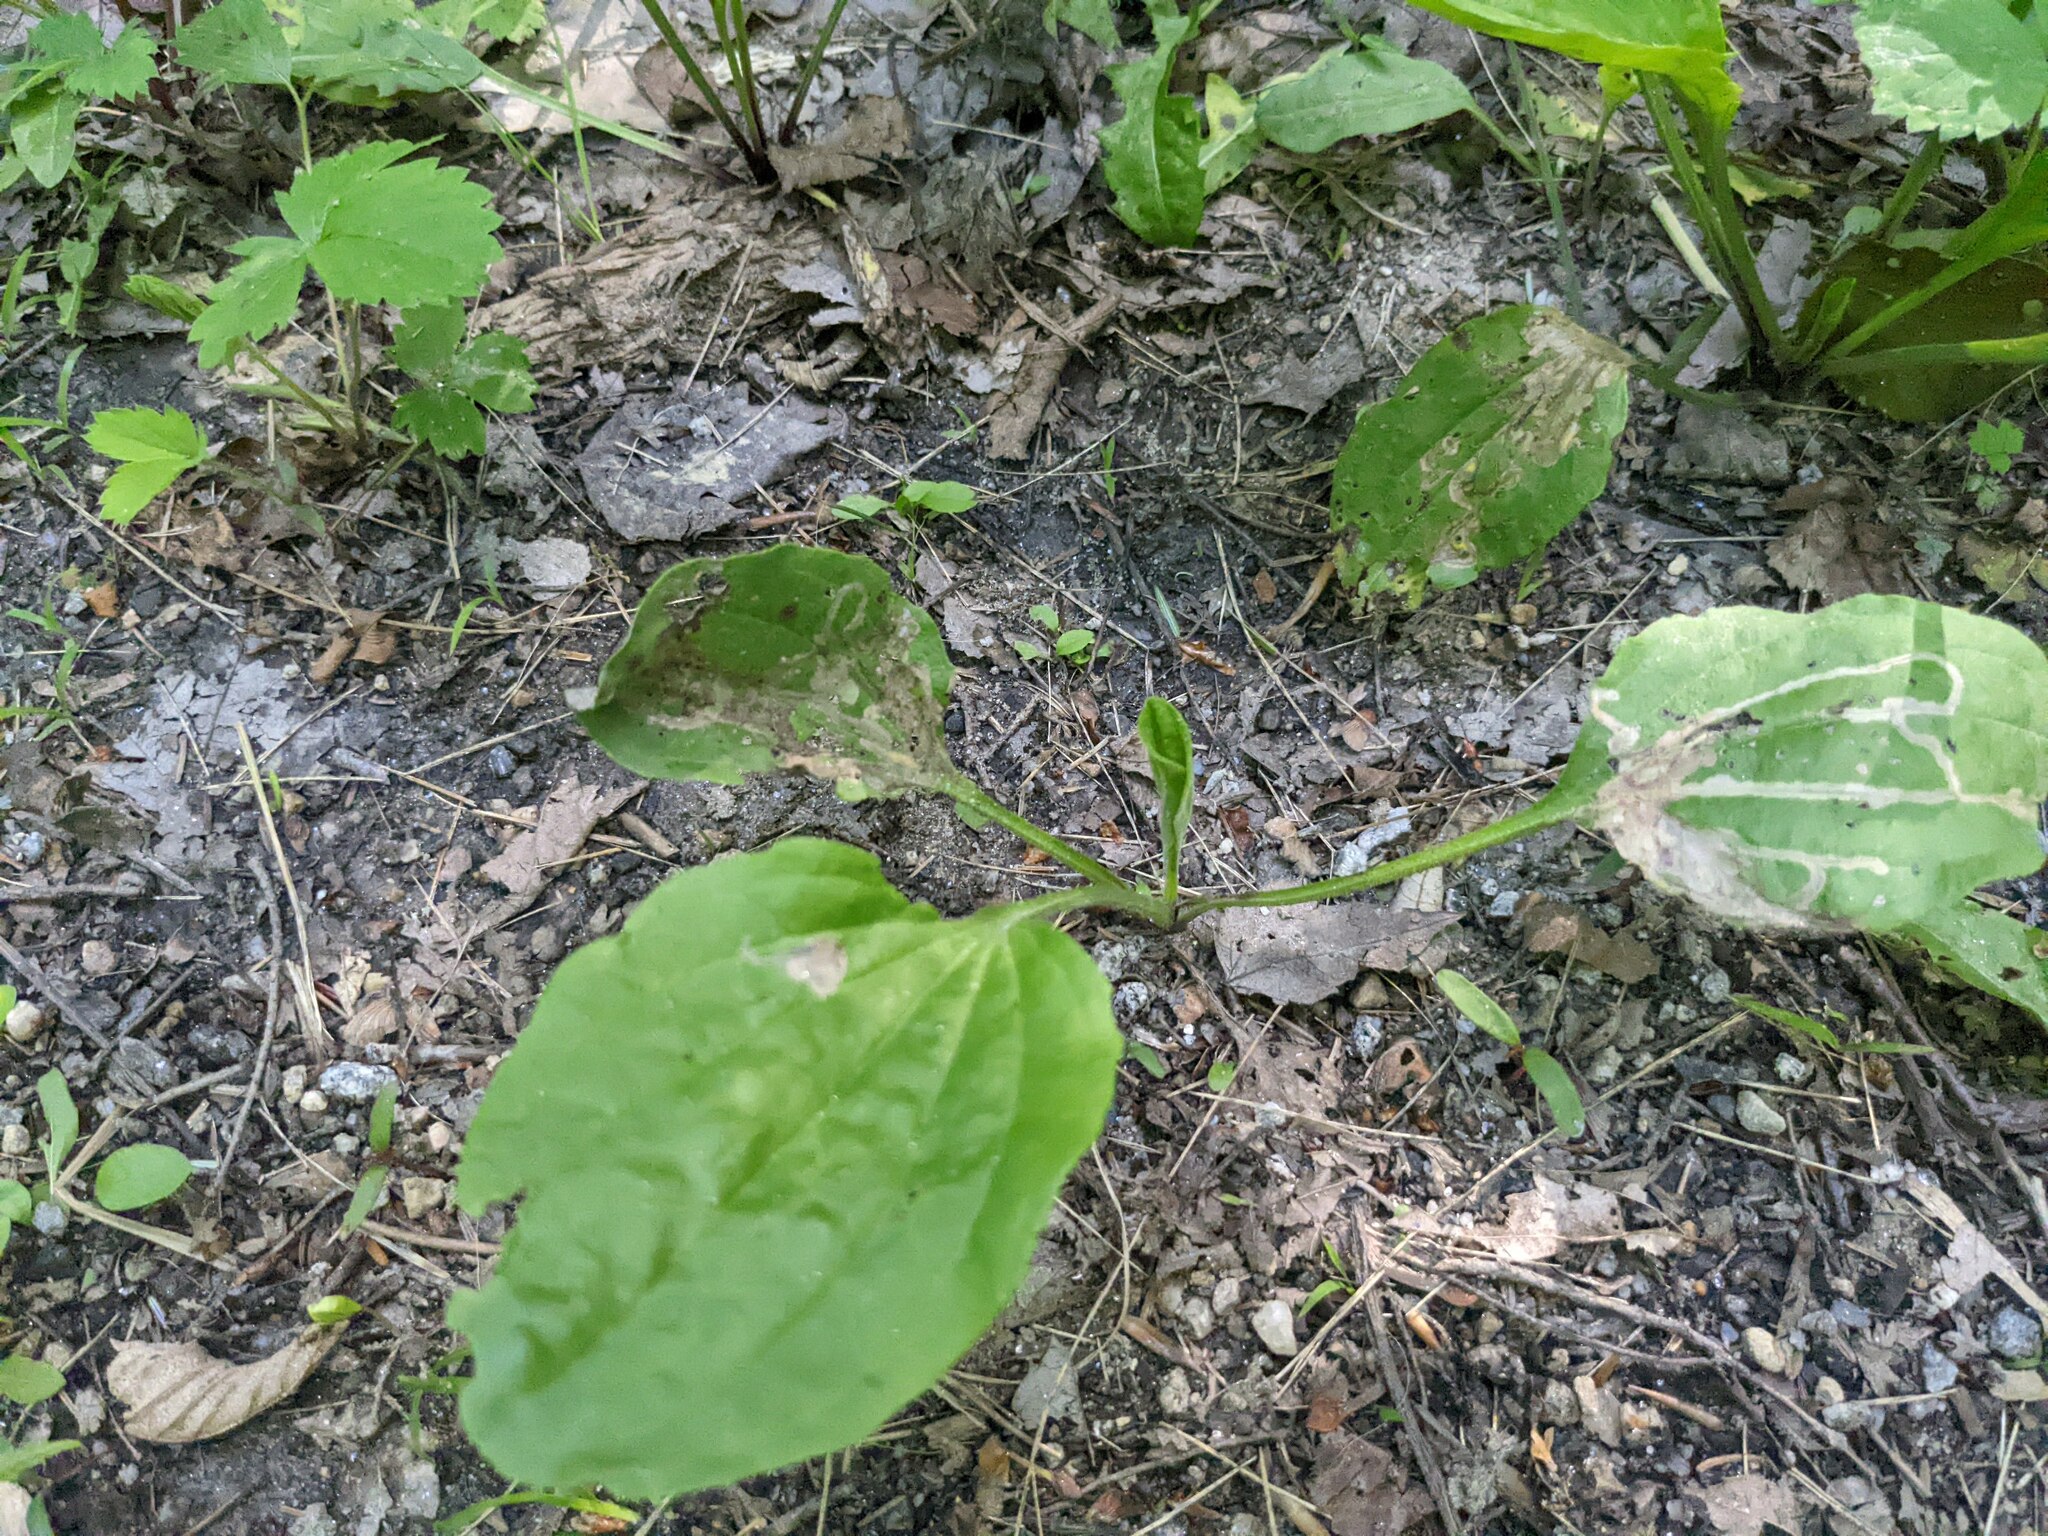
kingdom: Plantae
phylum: Tracheophyta
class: Magnoliopsida
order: Lamiales
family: Plantaginaceae
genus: Plantago
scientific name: Plantago rugelii
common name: American plantain
